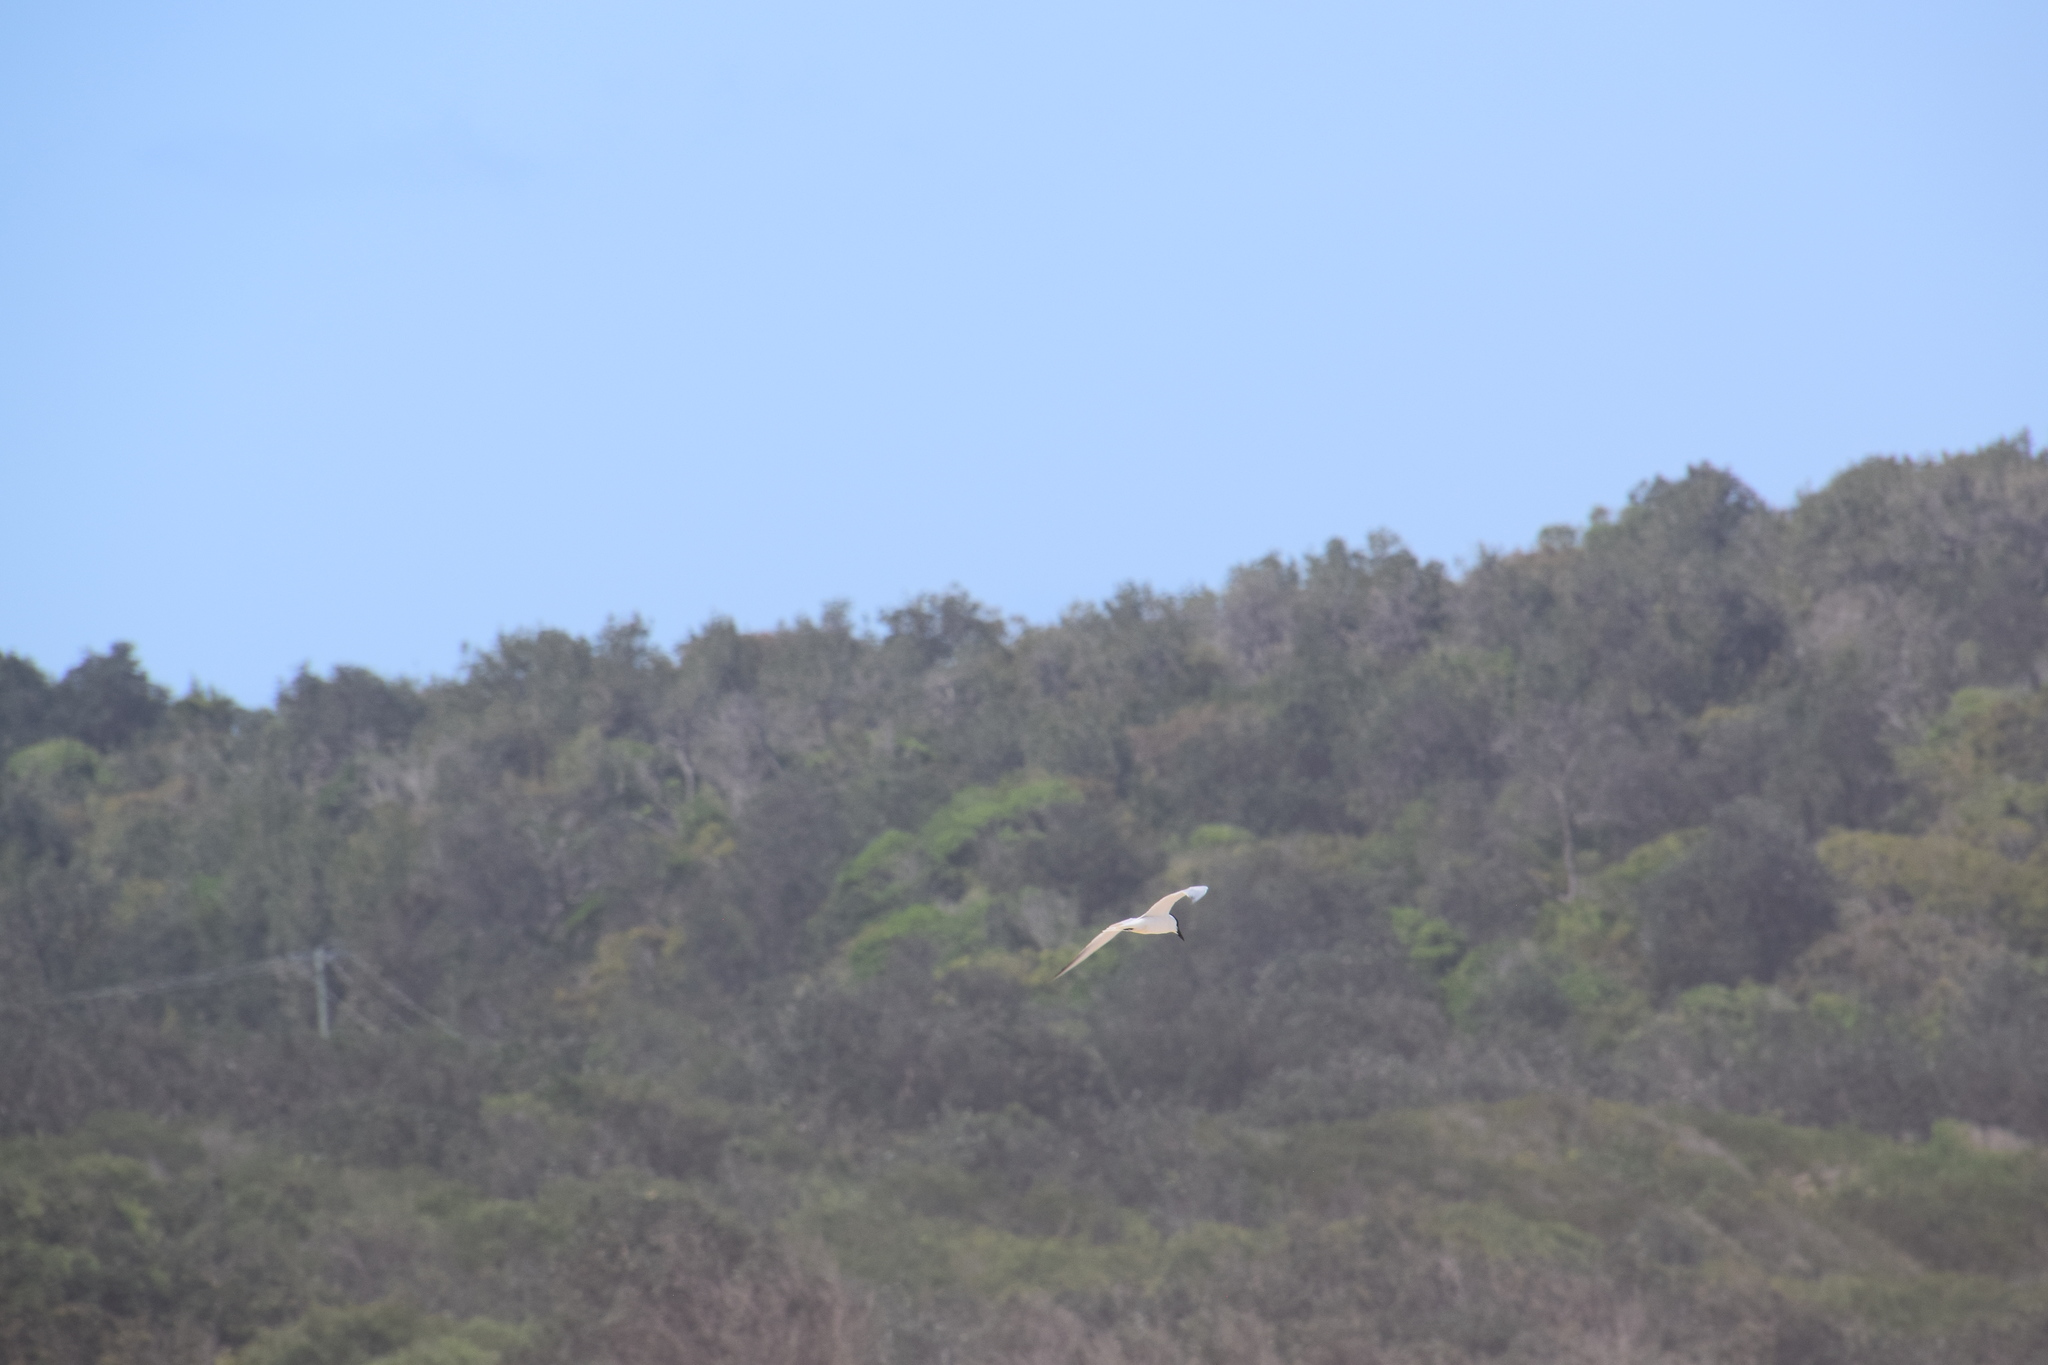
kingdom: Animalia
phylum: Chordata
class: Aves
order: Charadriiformes
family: Laridae
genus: Gelochelidon
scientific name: Gelochelidon macrotarsa
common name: Australian tern
